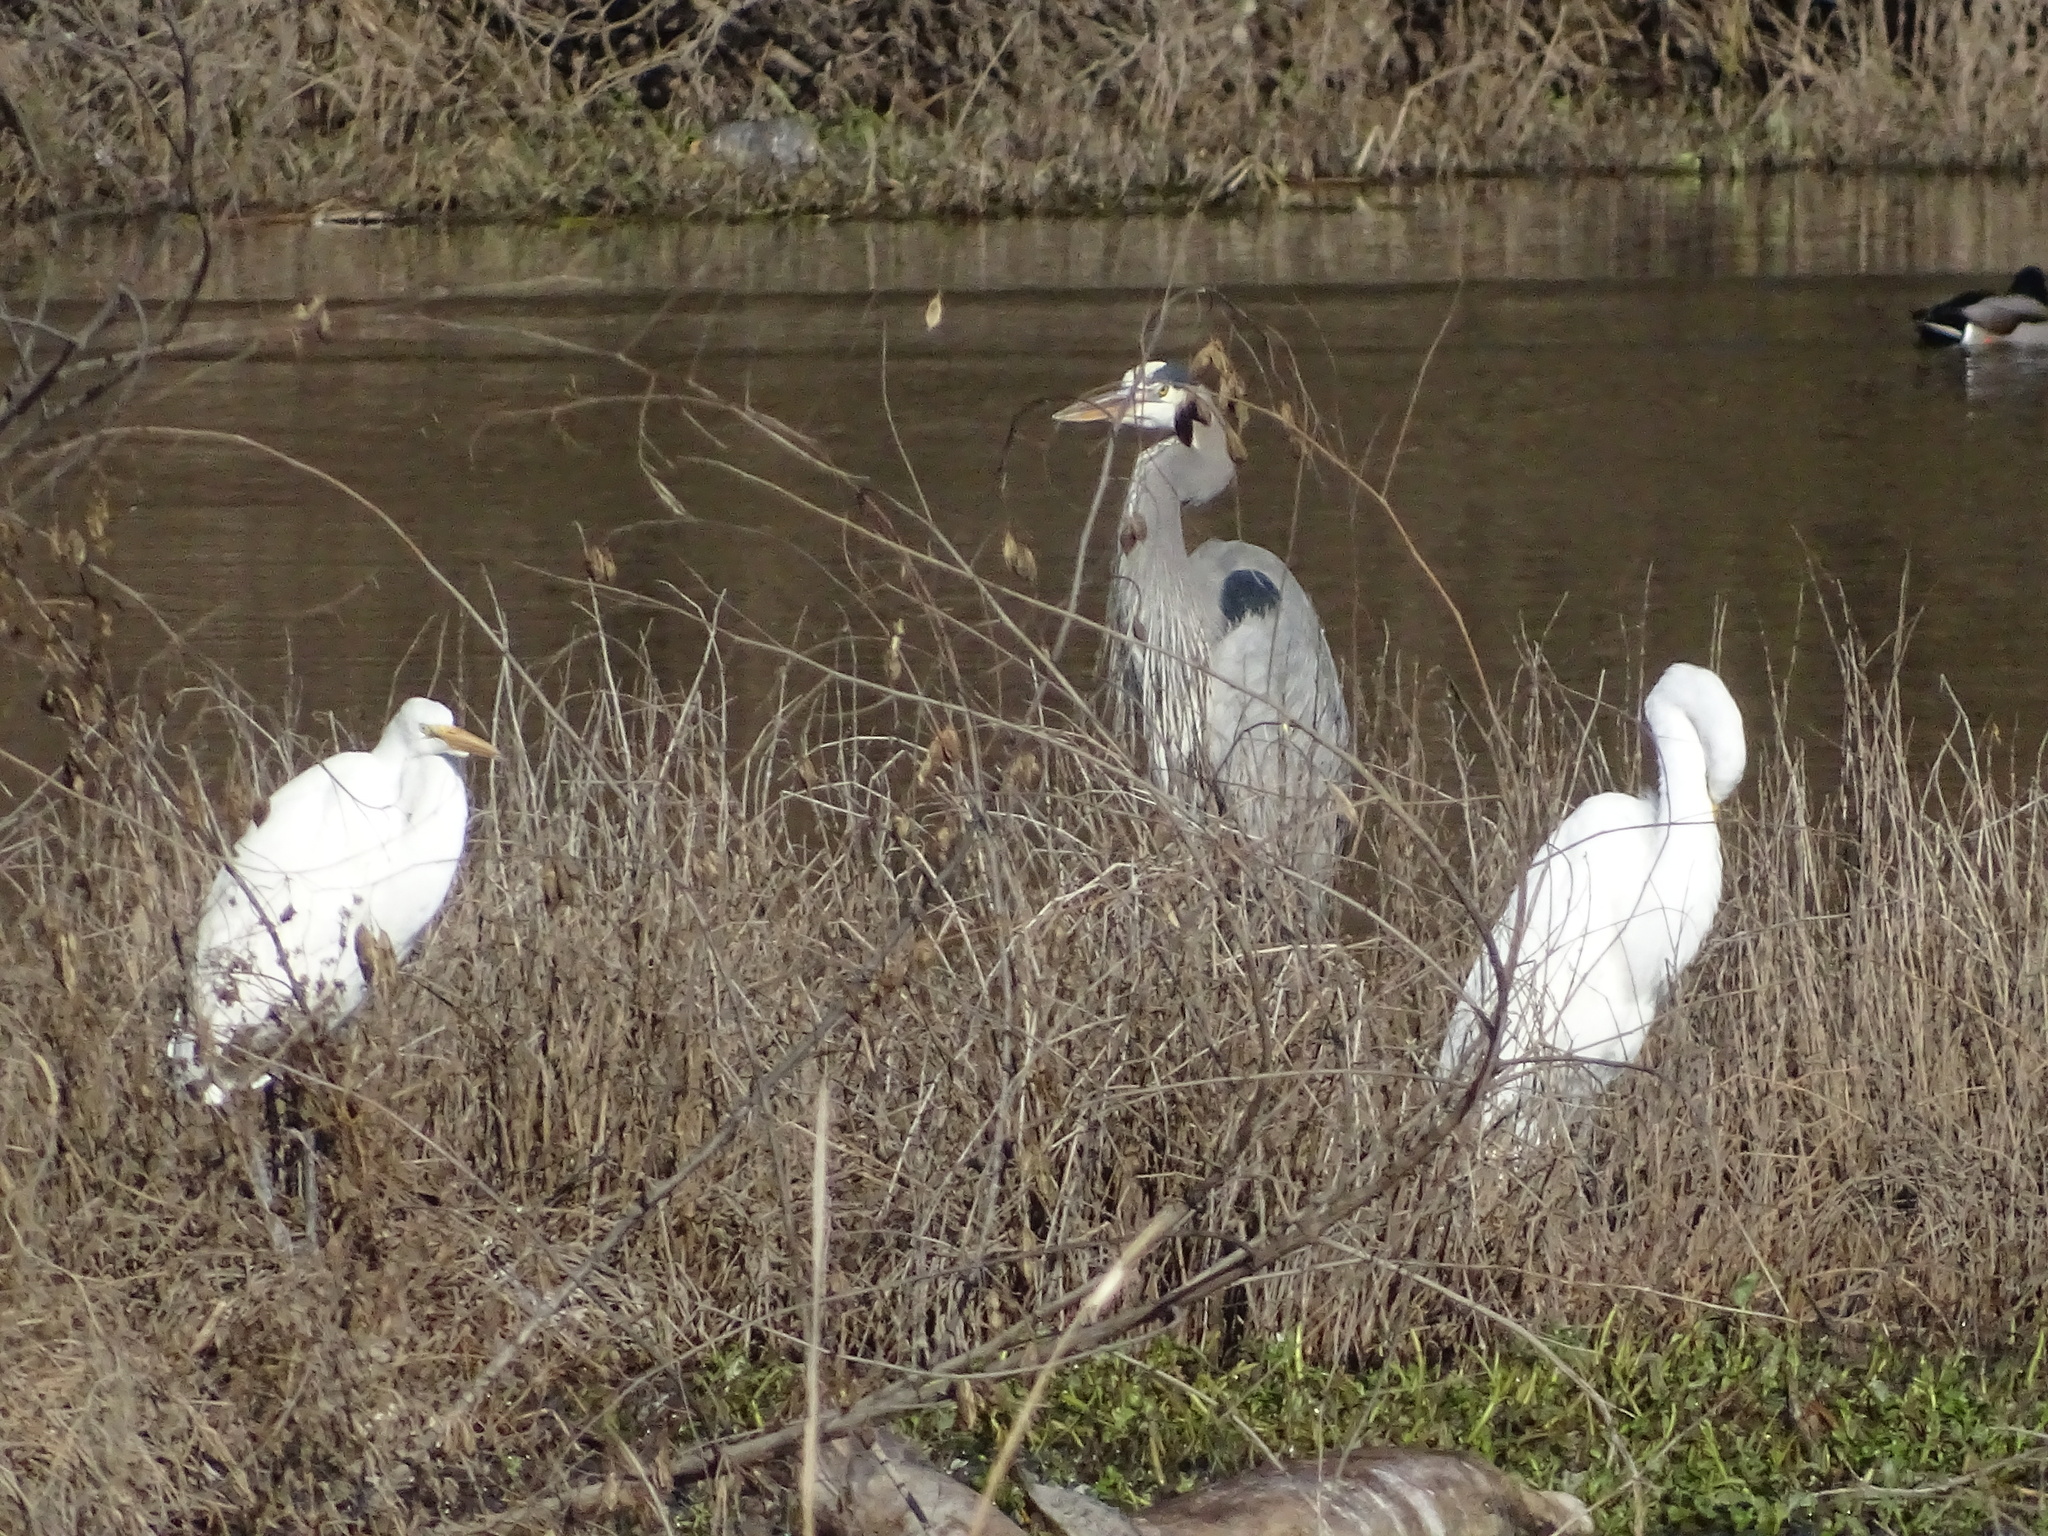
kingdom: Animalia
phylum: Chordata
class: Aves
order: Pelecaniformes
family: Ardeidae
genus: Ardea
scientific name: Ardea herodias
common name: Great blue heron
